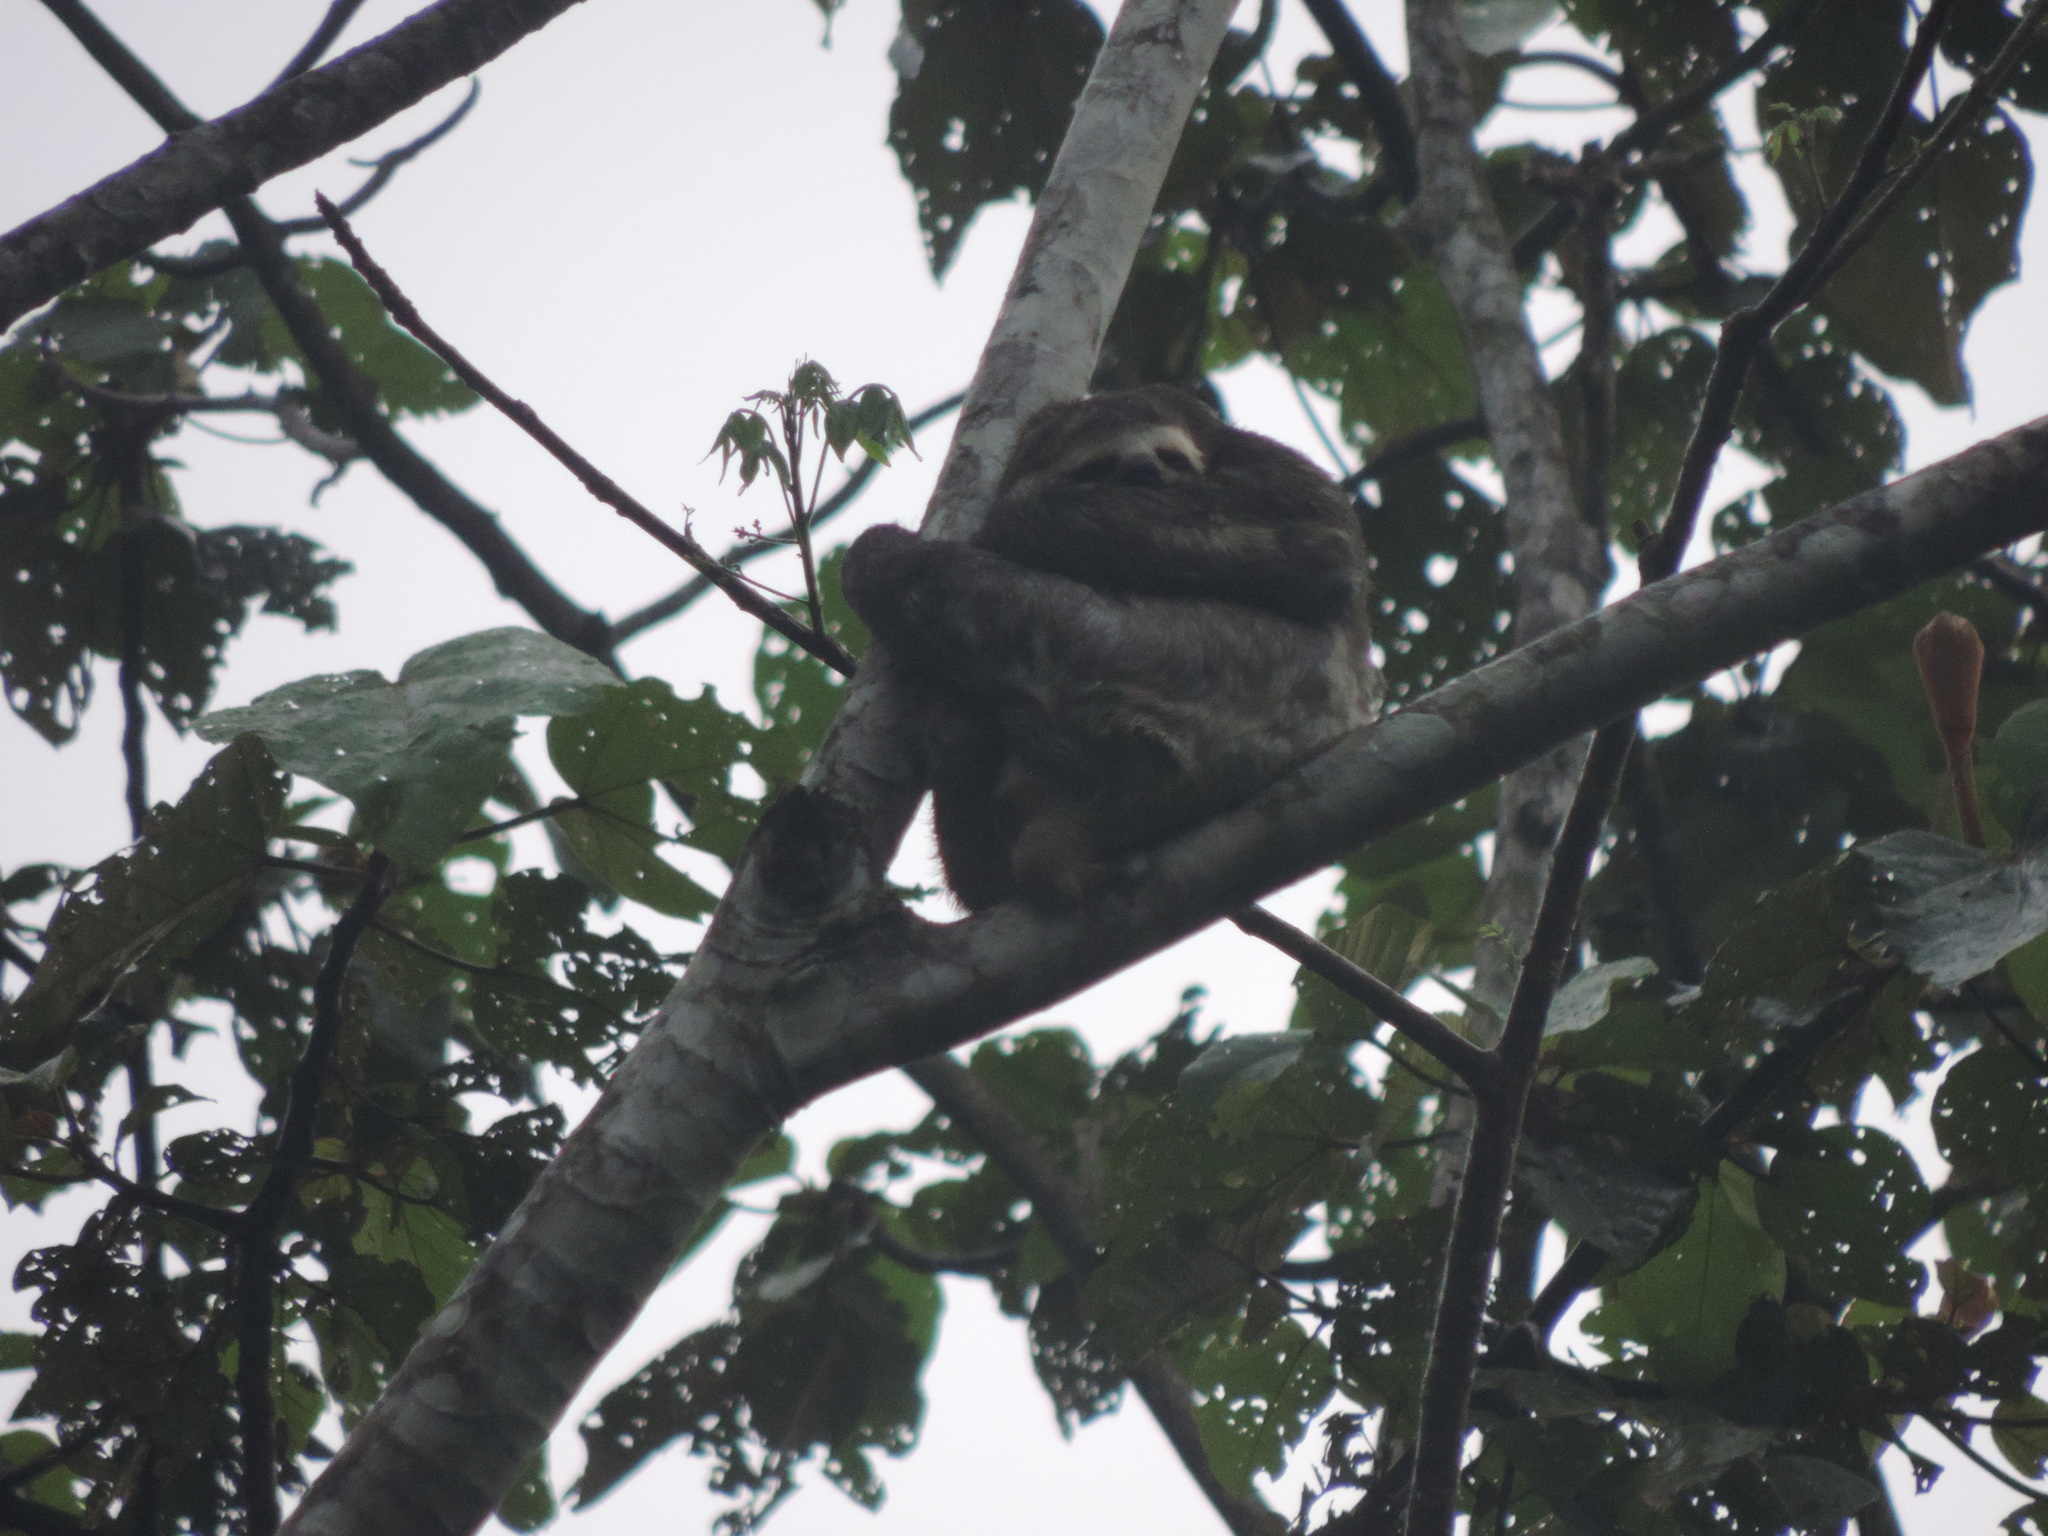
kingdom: Animalia
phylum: Chordata
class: Mammalia
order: Pilosa
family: Bradypodidae
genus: Bradypus
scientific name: Bradypus variegatus
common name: Brown-throated three-toed sloth
